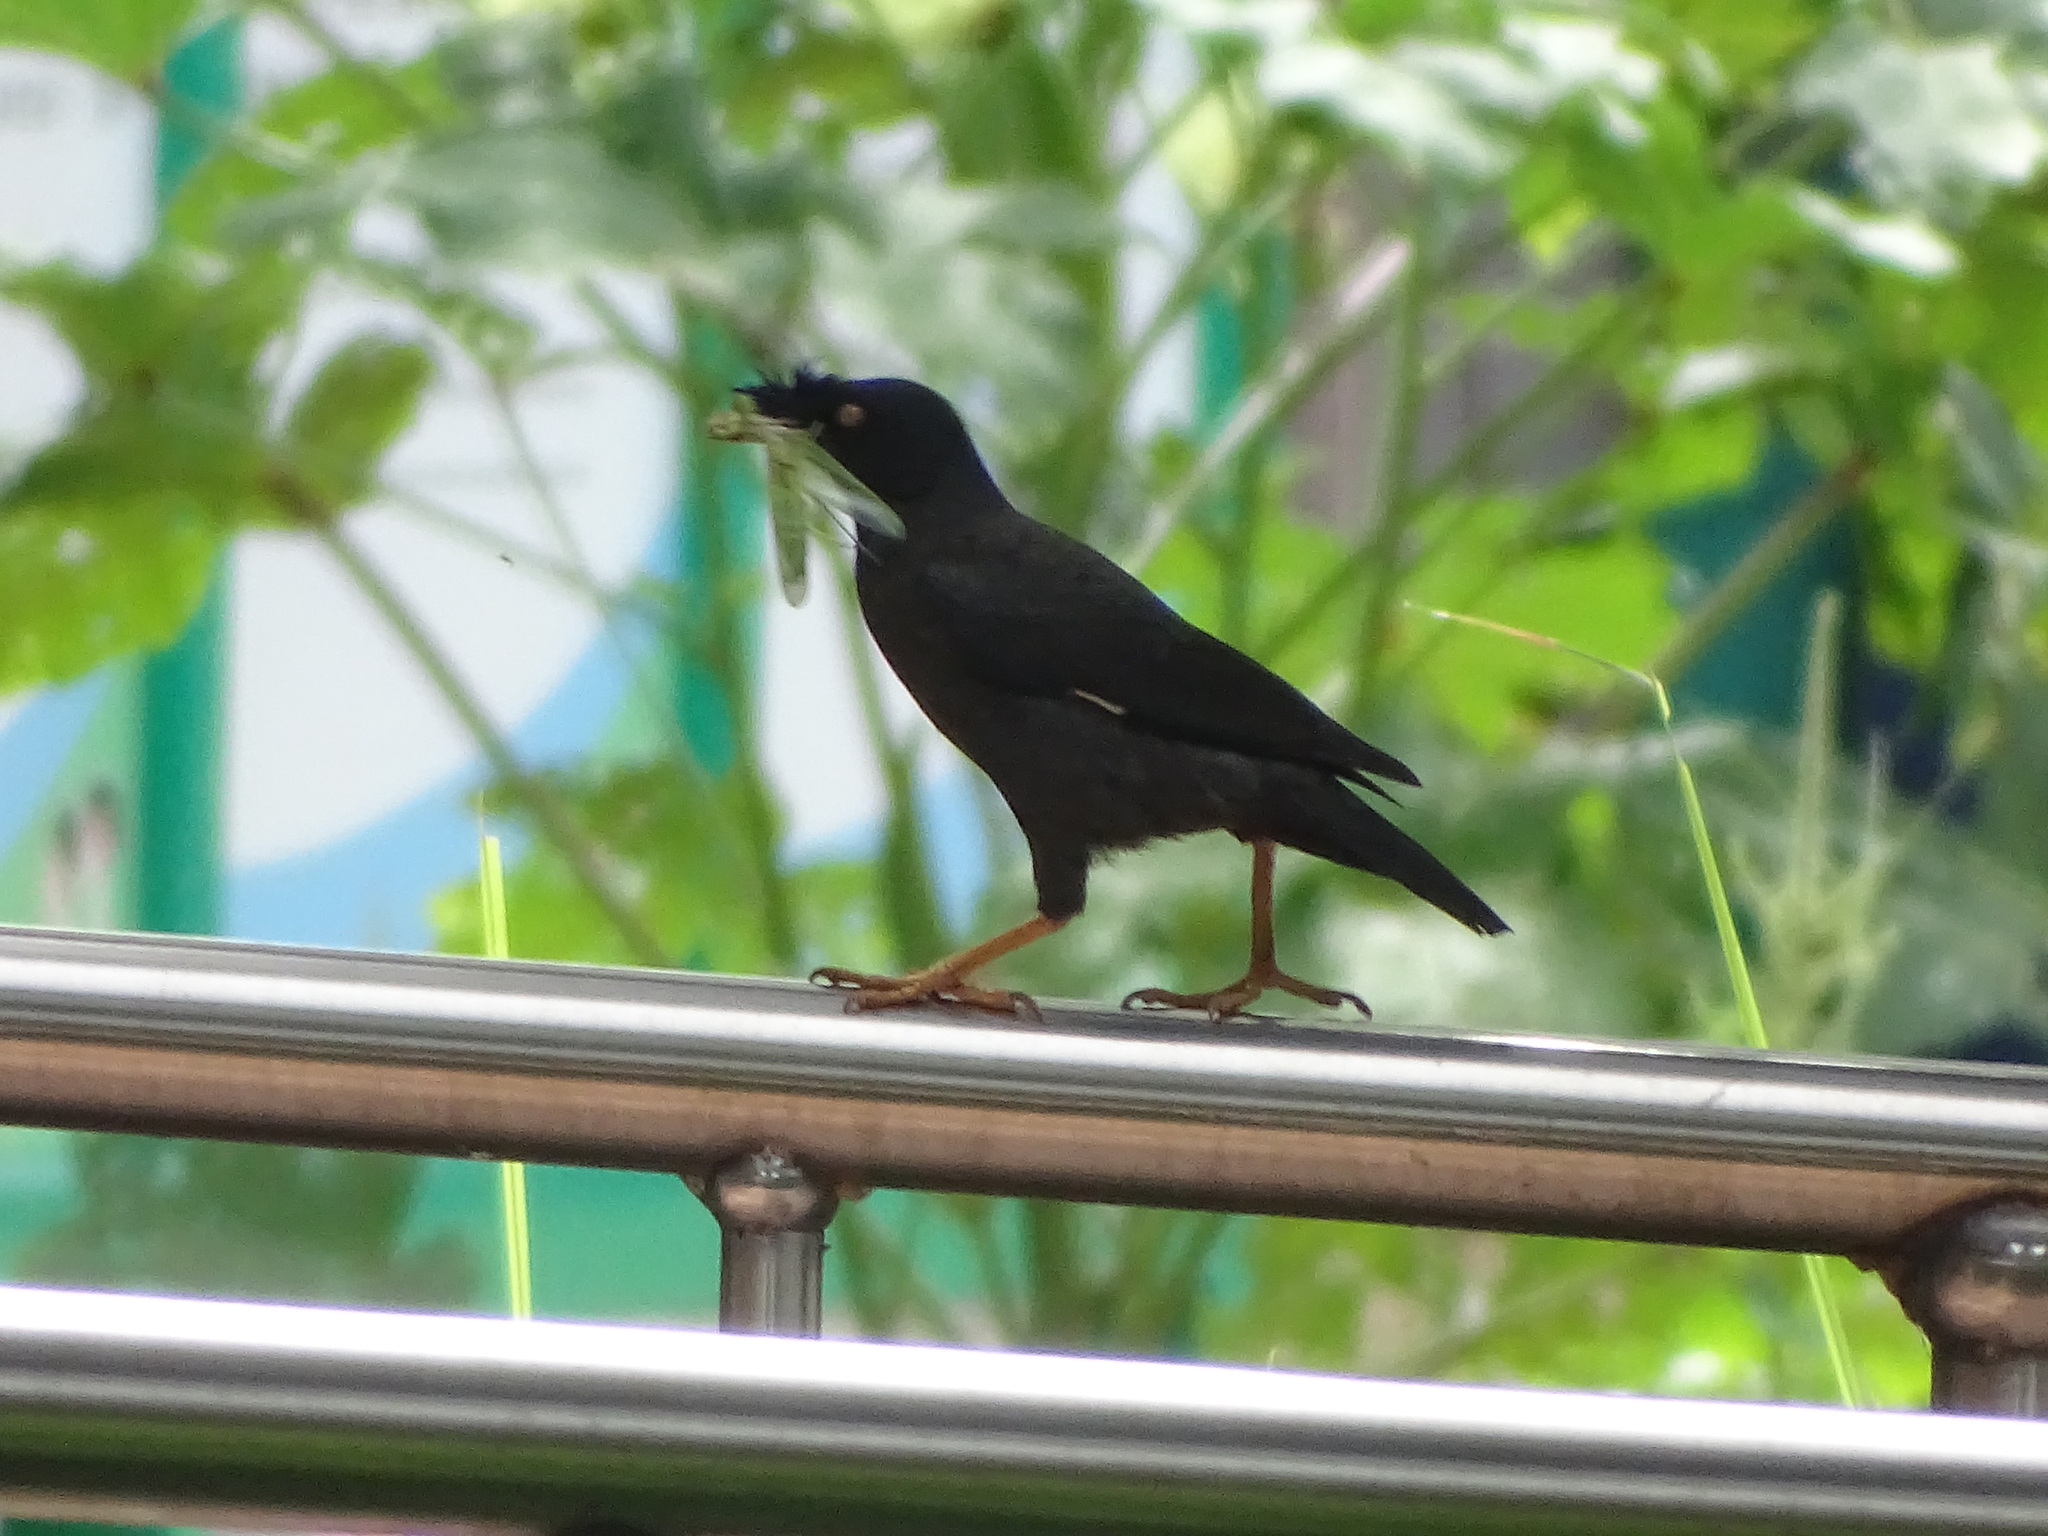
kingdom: Animalia
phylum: Chordata
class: Aves
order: Passeriformes
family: Sturnidae
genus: Acridotheres
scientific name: Acridotheres cristatellus
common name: Crested myna
